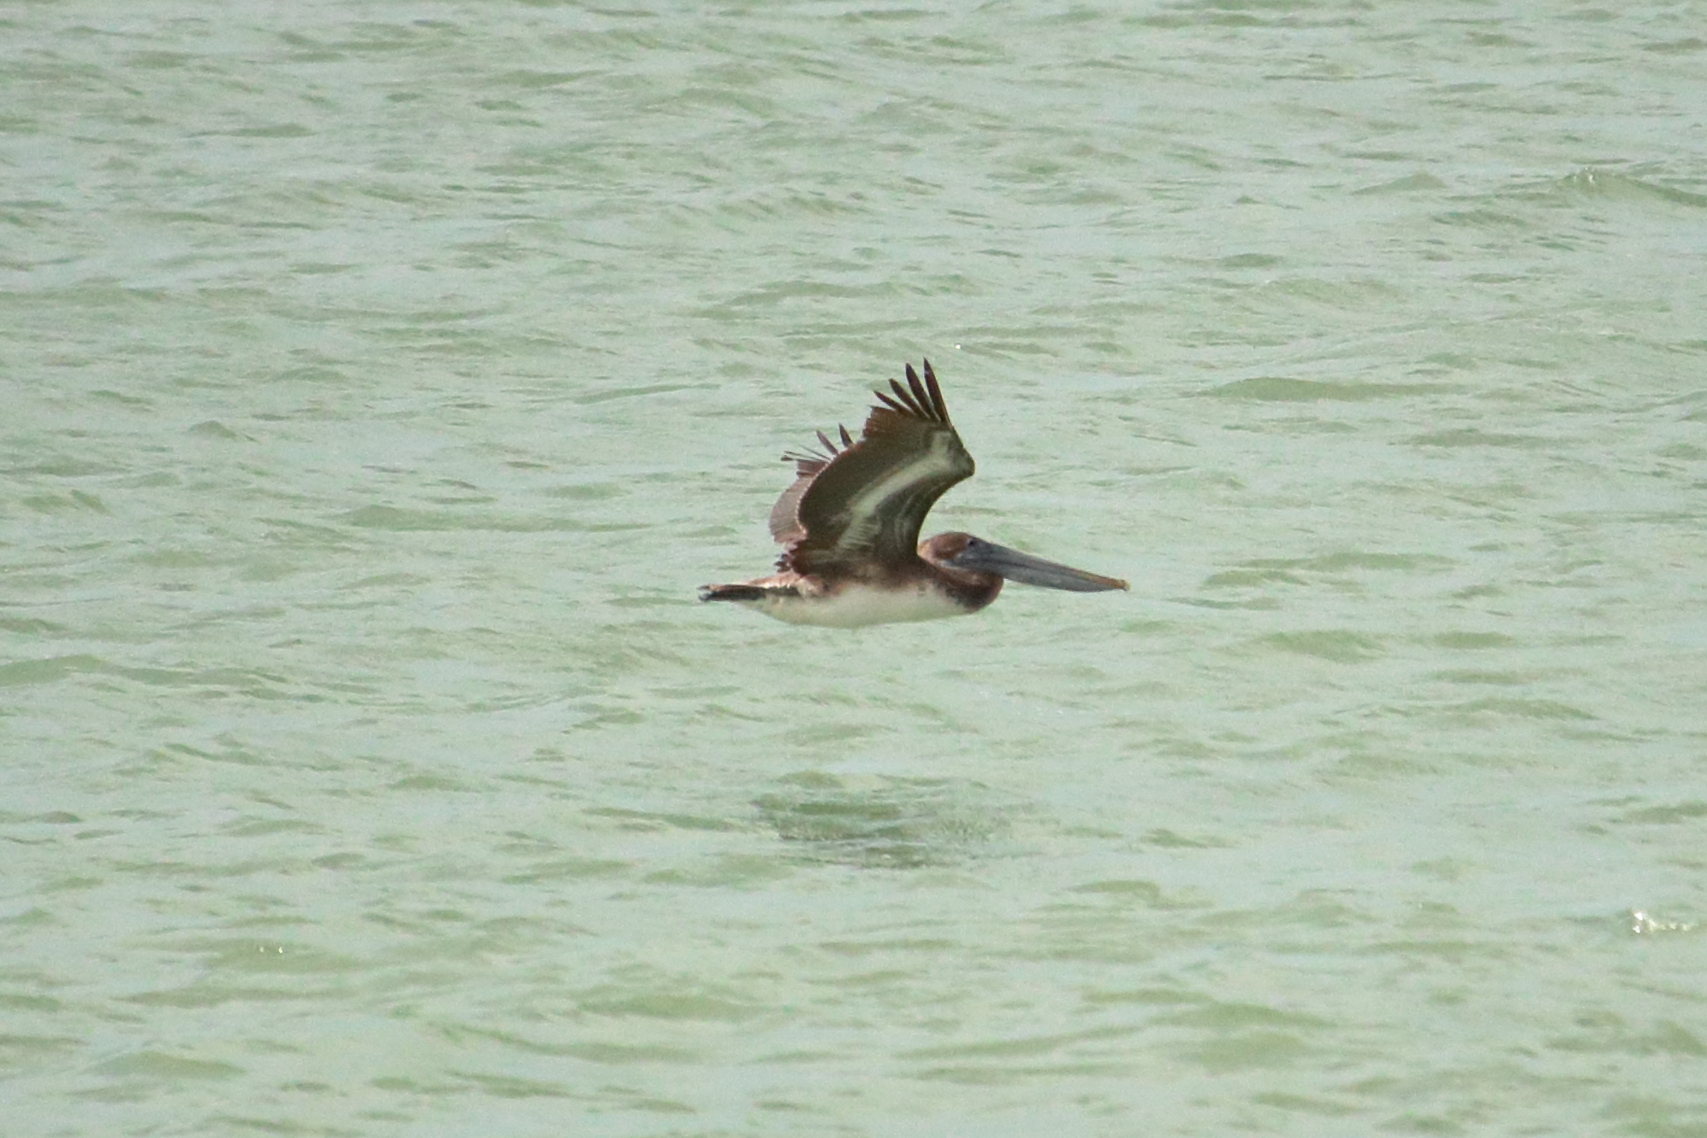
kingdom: Animalia
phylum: Chordata
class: Aves
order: Pelecaniformes
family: Pelecanidae
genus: Pelecanus
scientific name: Pelecanus occidentalis
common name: Brown pelican
